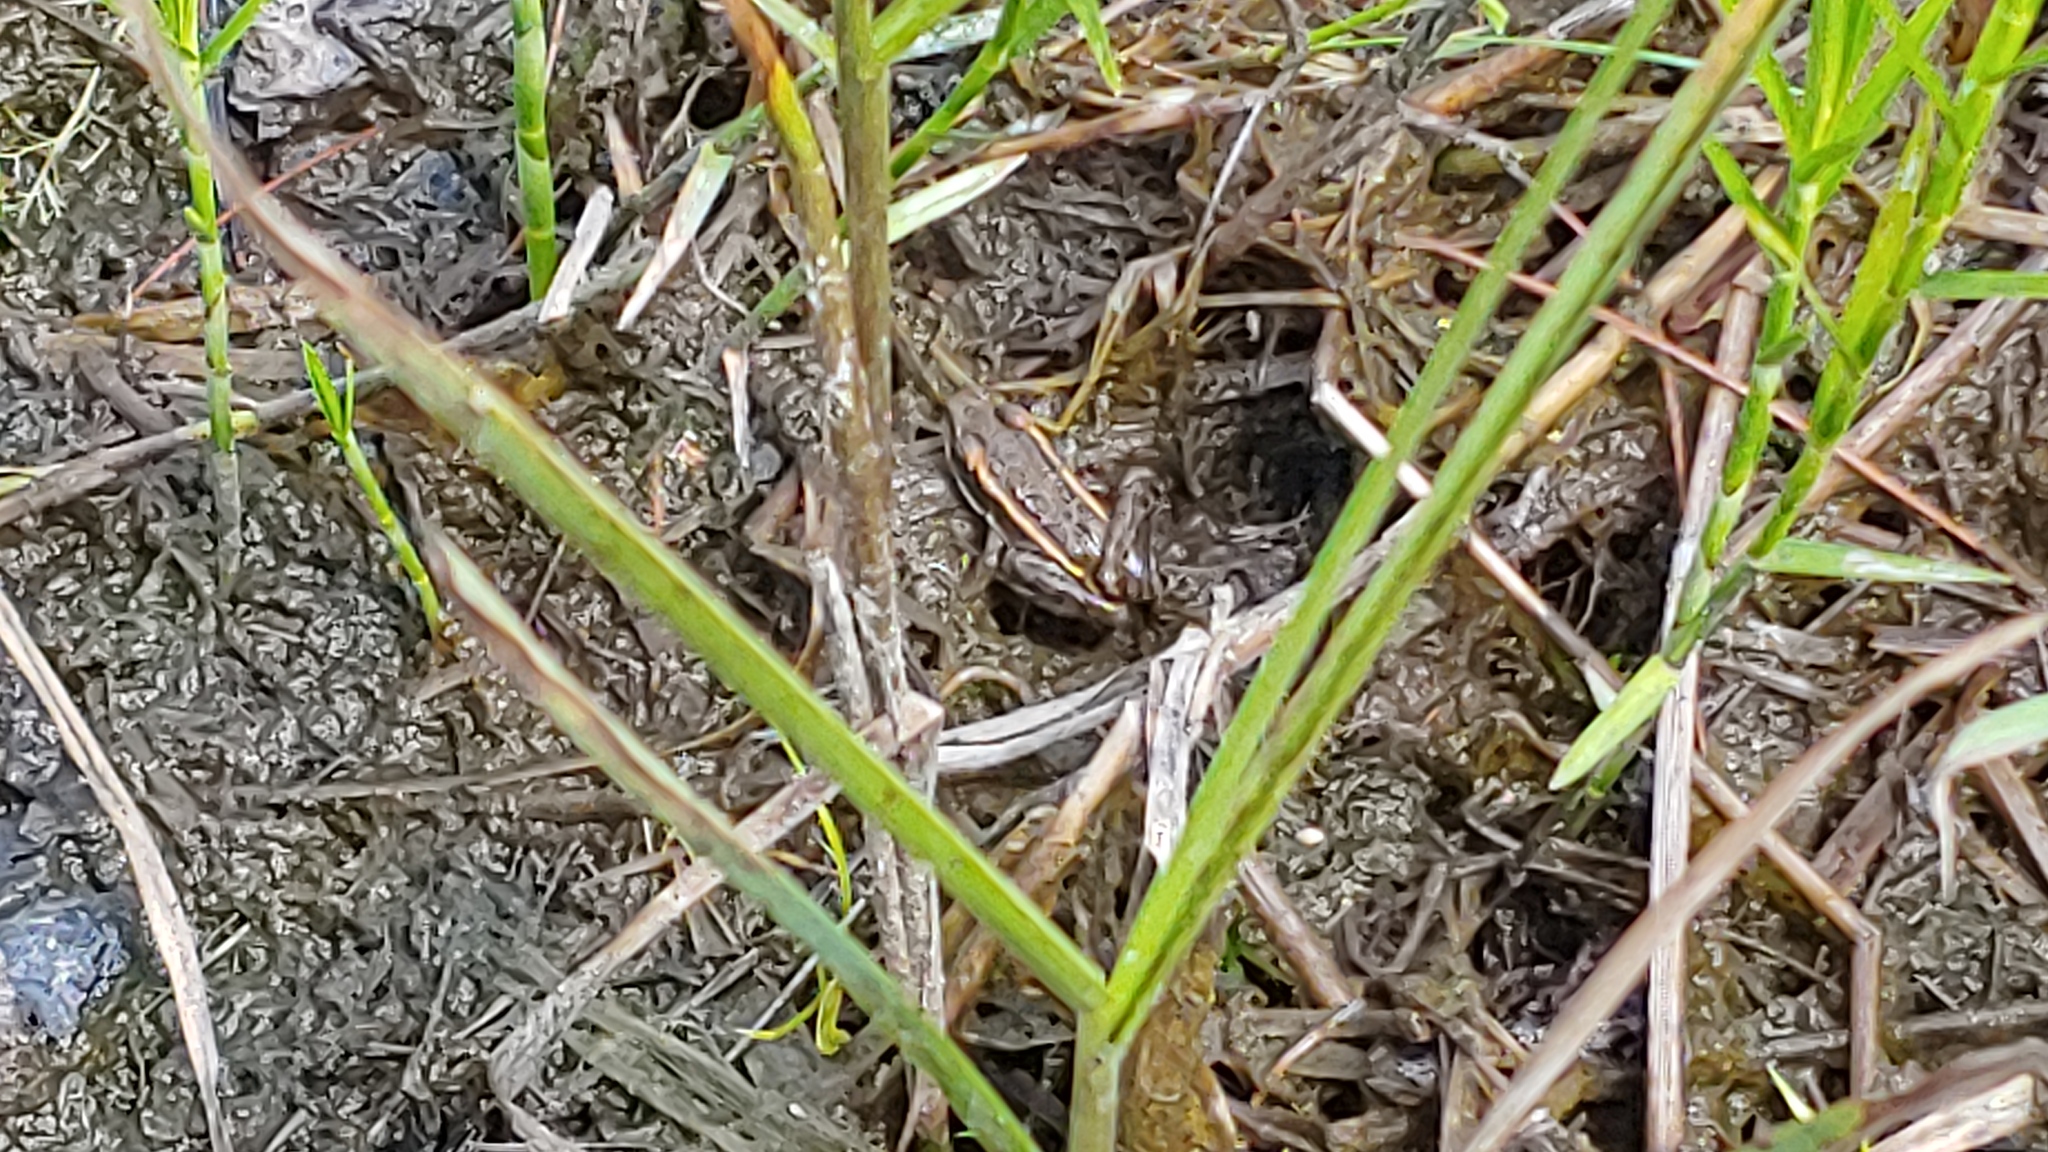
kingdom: Animalia
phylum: Chordata
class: Amphibia
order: Anura
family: Ranidae
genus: Lithobates
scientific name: Lithobates palustris
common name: Pickerel frog
